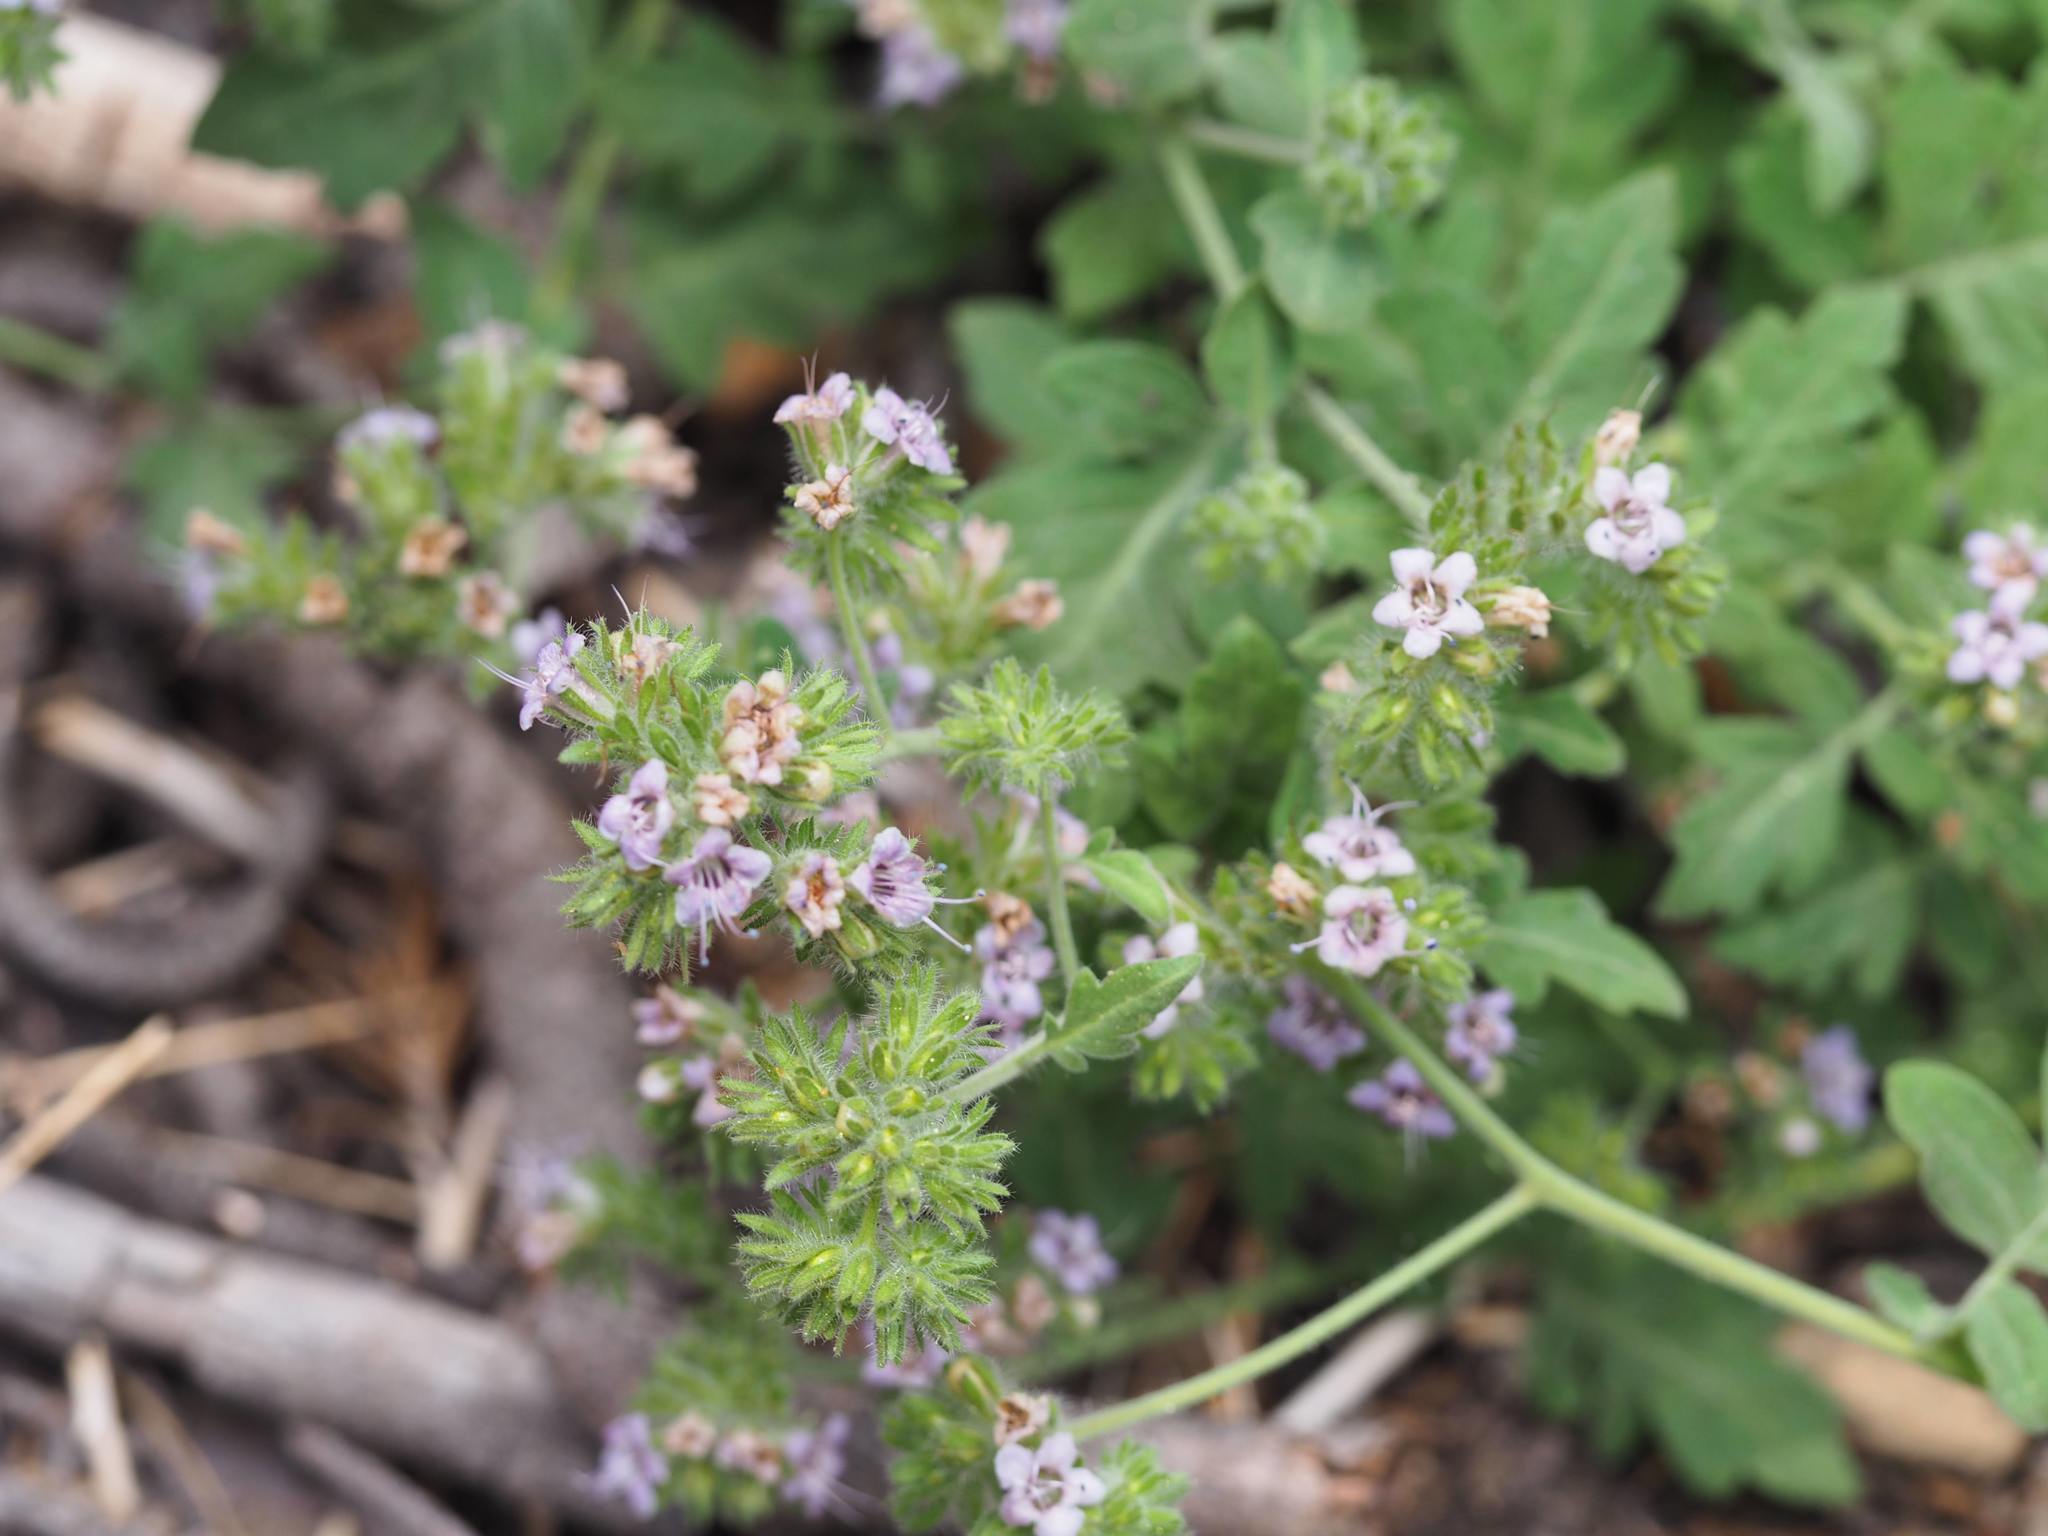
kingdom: Plantae
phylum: Tracheophyta
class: Magnoliopsida
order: Boraginales
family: Hydrophyllaceae
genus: Phacelia
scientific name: Phacelia ramosissima
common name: Branching phacelia
